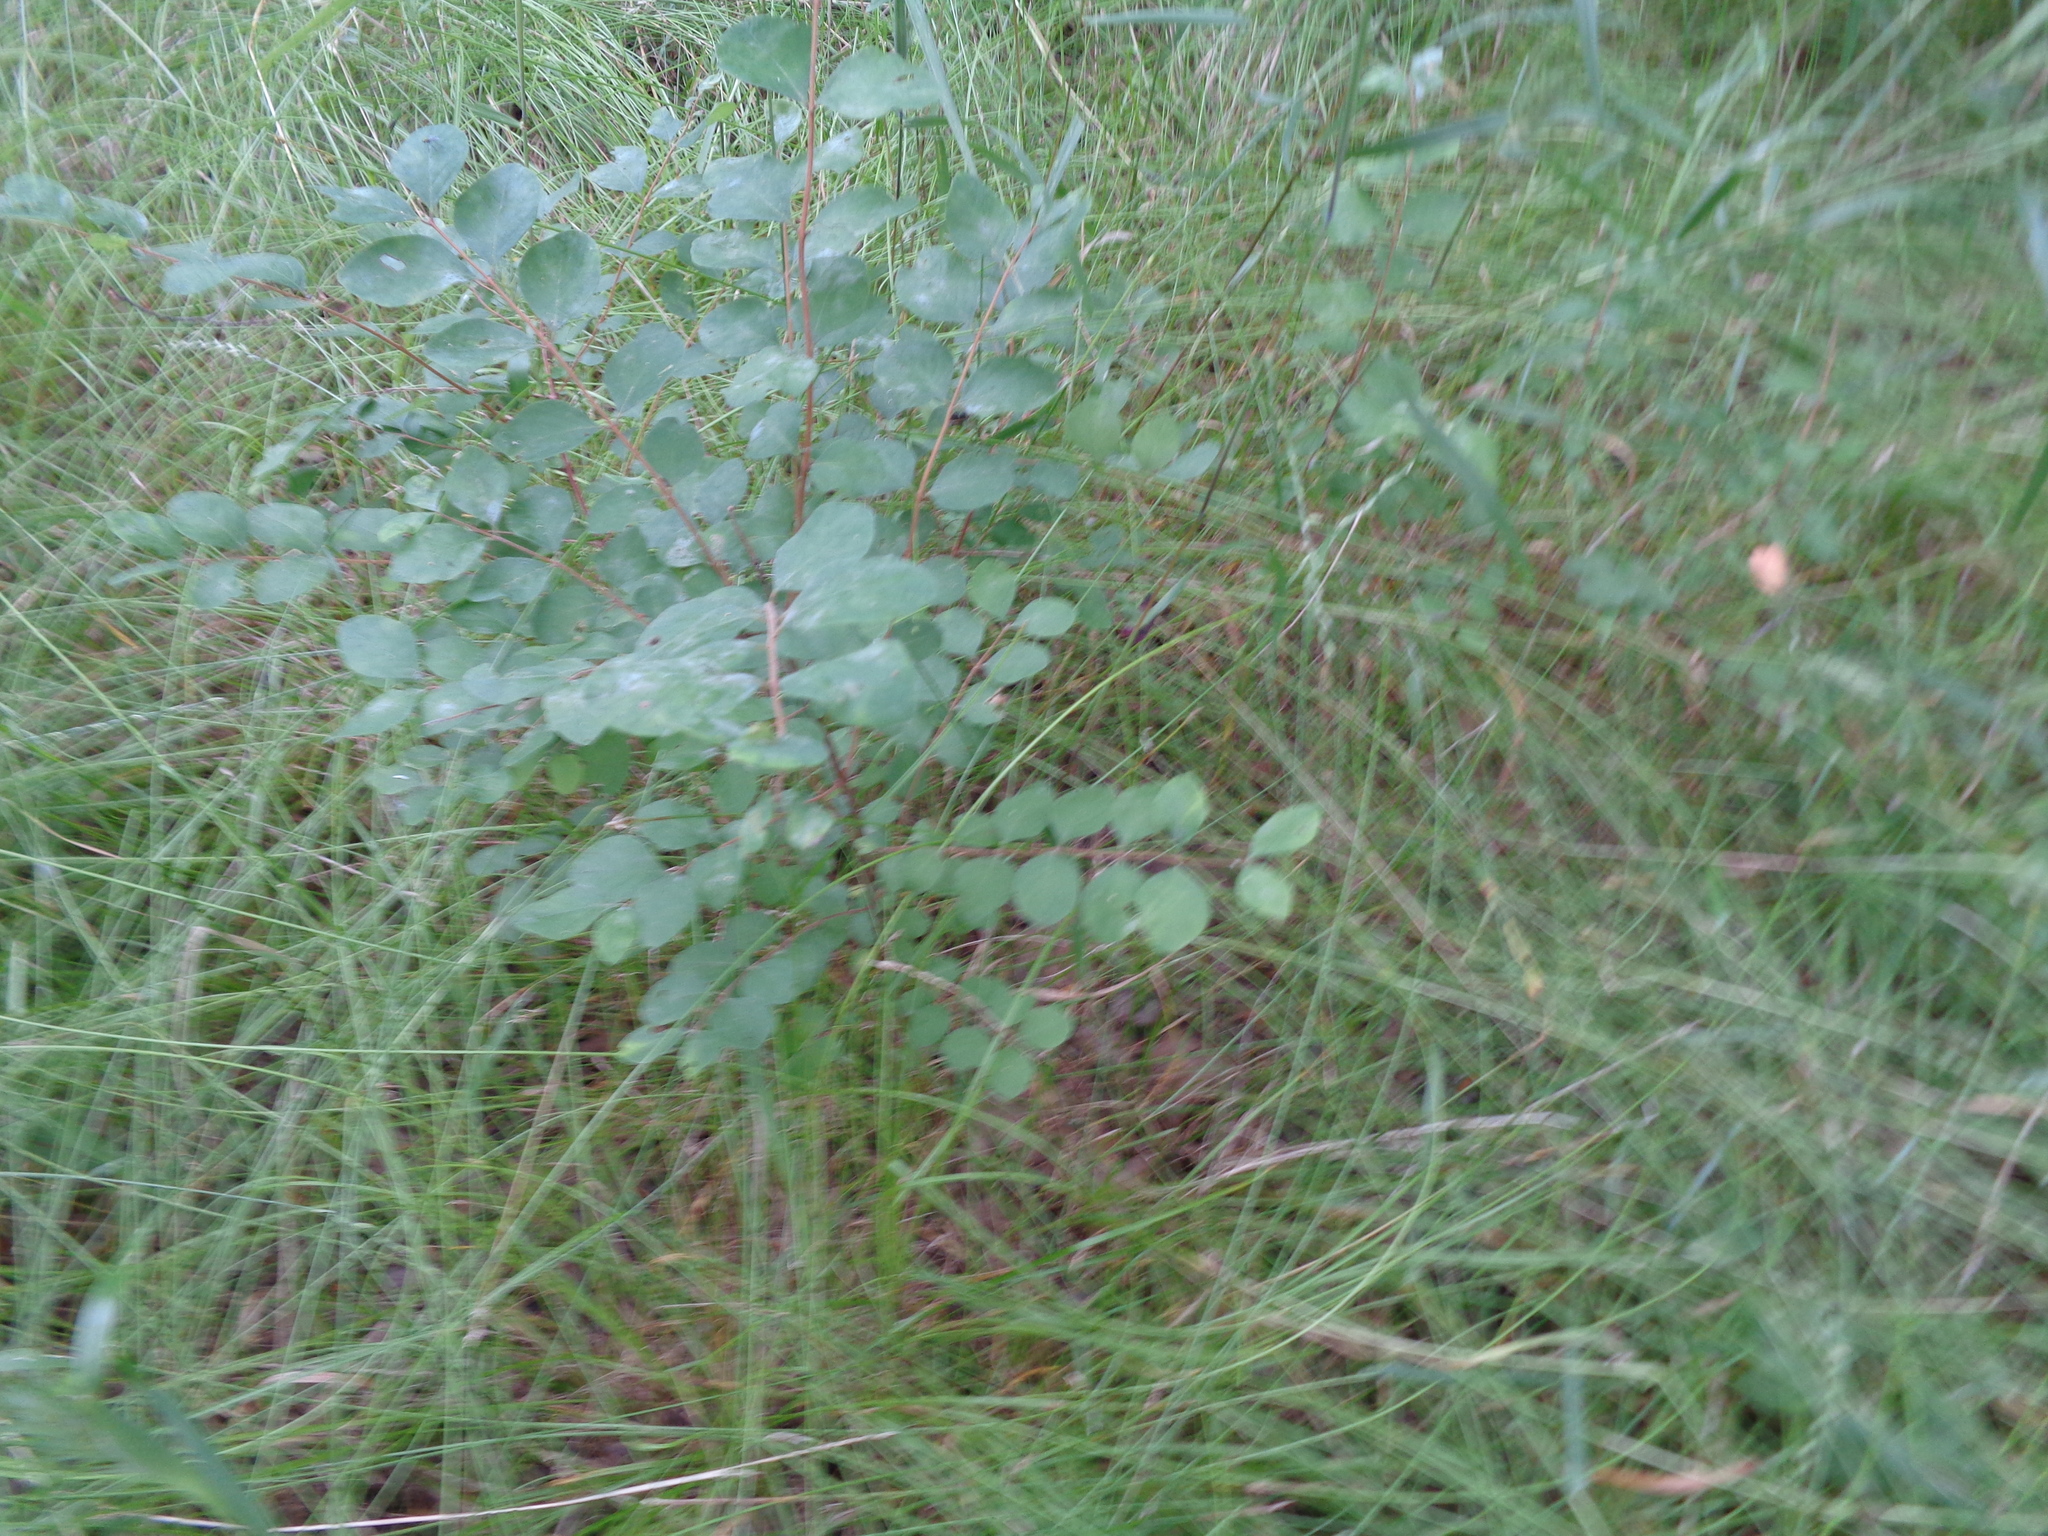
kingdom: Plantae
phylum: Tracheophyta
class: Magnoliopsida
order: Dipsacales
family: Caprifoliaceae
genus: Symphoricarpos
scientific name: Symphoricarpos orbiculatus
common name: Coralberry
